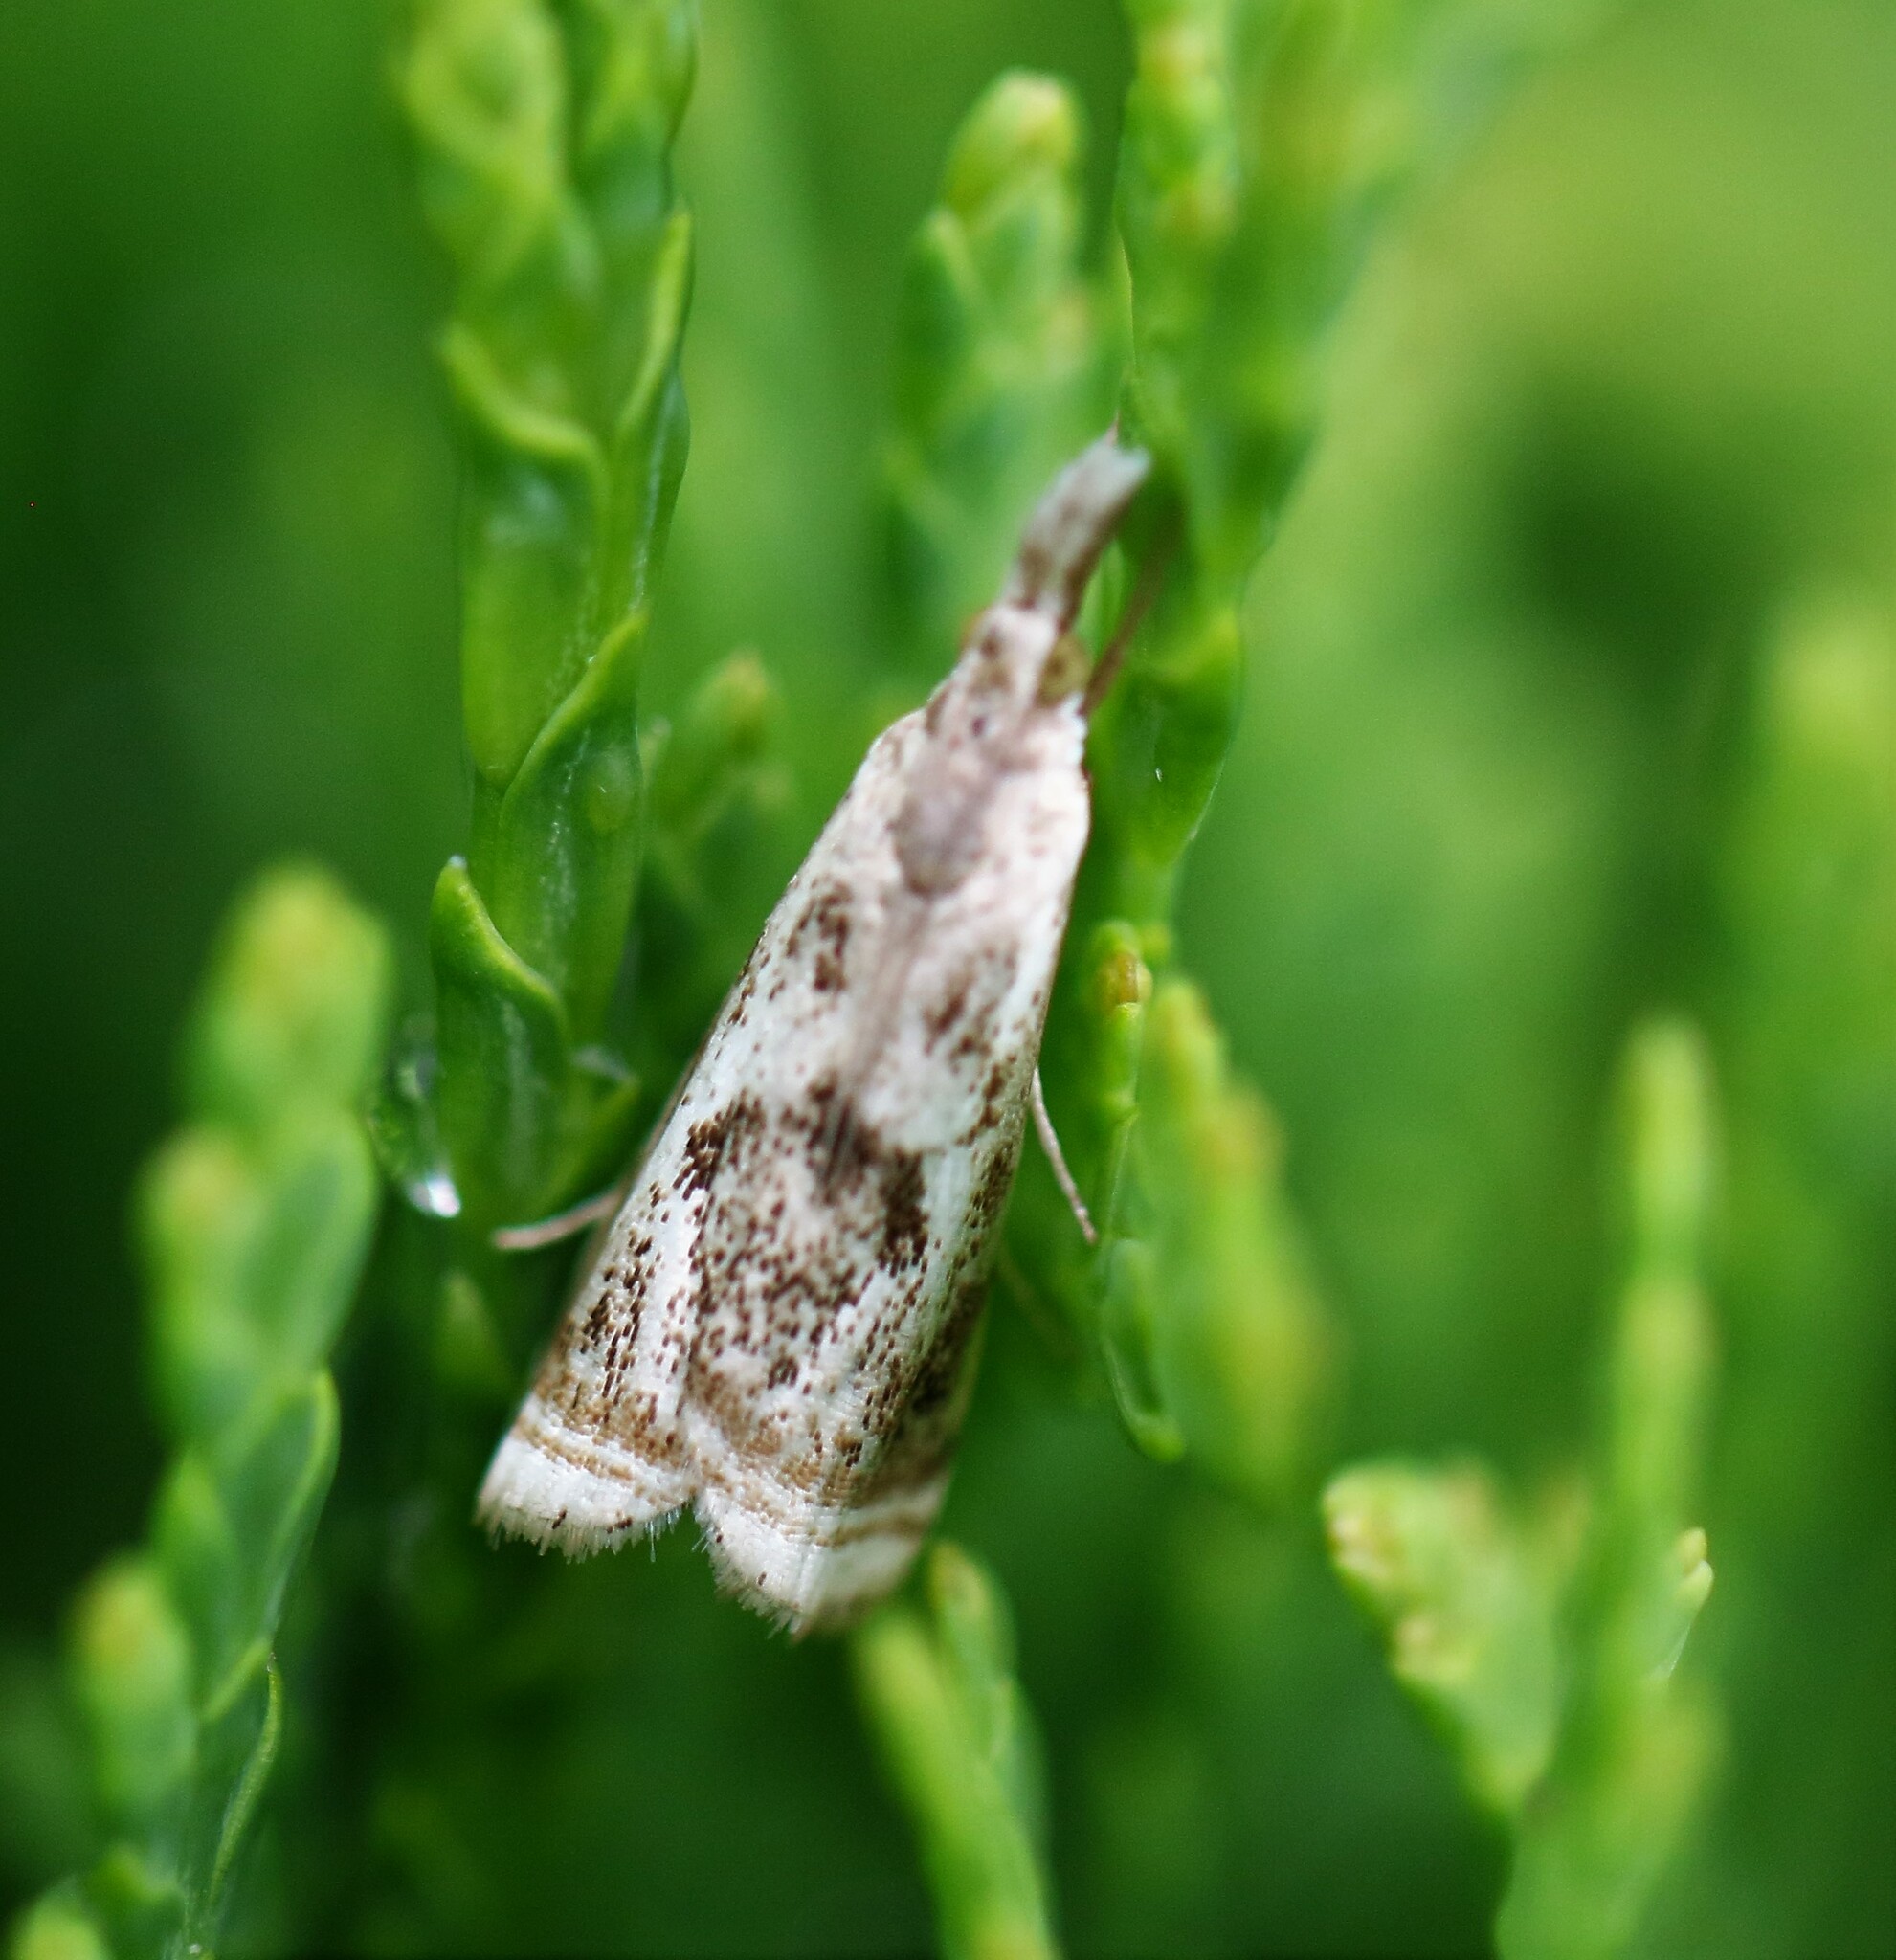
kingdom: Animalia
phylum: Arthropoda
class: Insecta
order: Lepidoptera
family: Crambidae
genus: Microcrambus
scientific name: Microcrambus elegans
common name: Elegant grass-veneer
